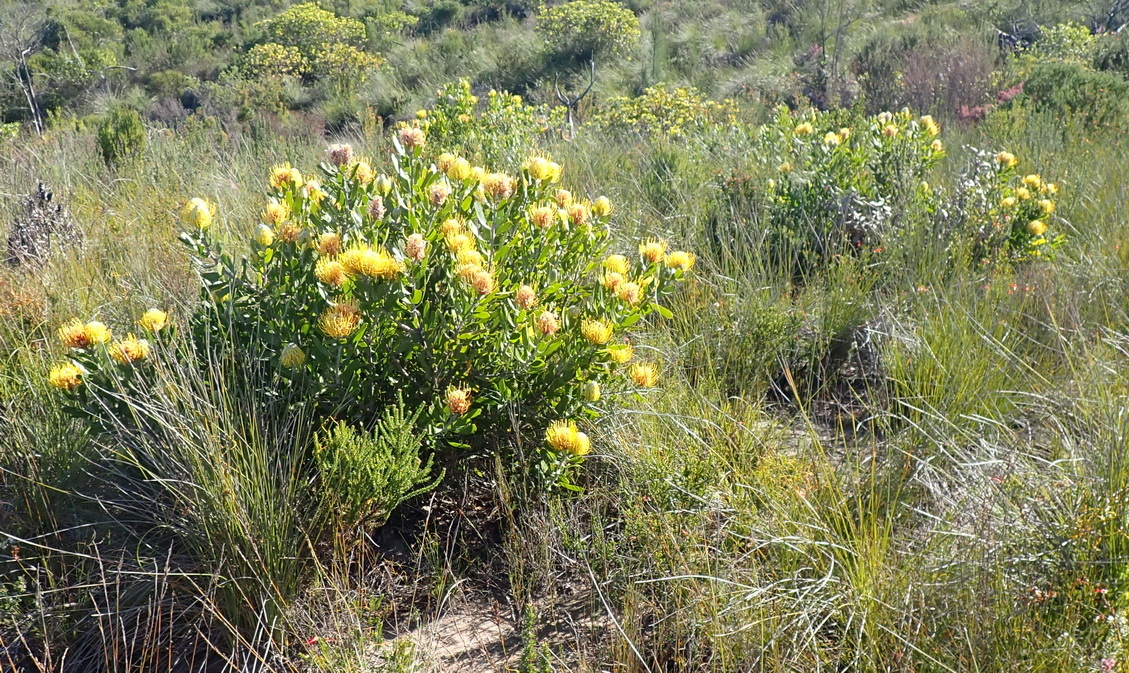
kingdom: Plantae
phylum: Tracheophyta
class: Magnoliopsida
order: Proteales
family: Proteaceae
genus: Leucospermum
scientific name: Leucospermum cuneiforme
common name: Common pincushion
